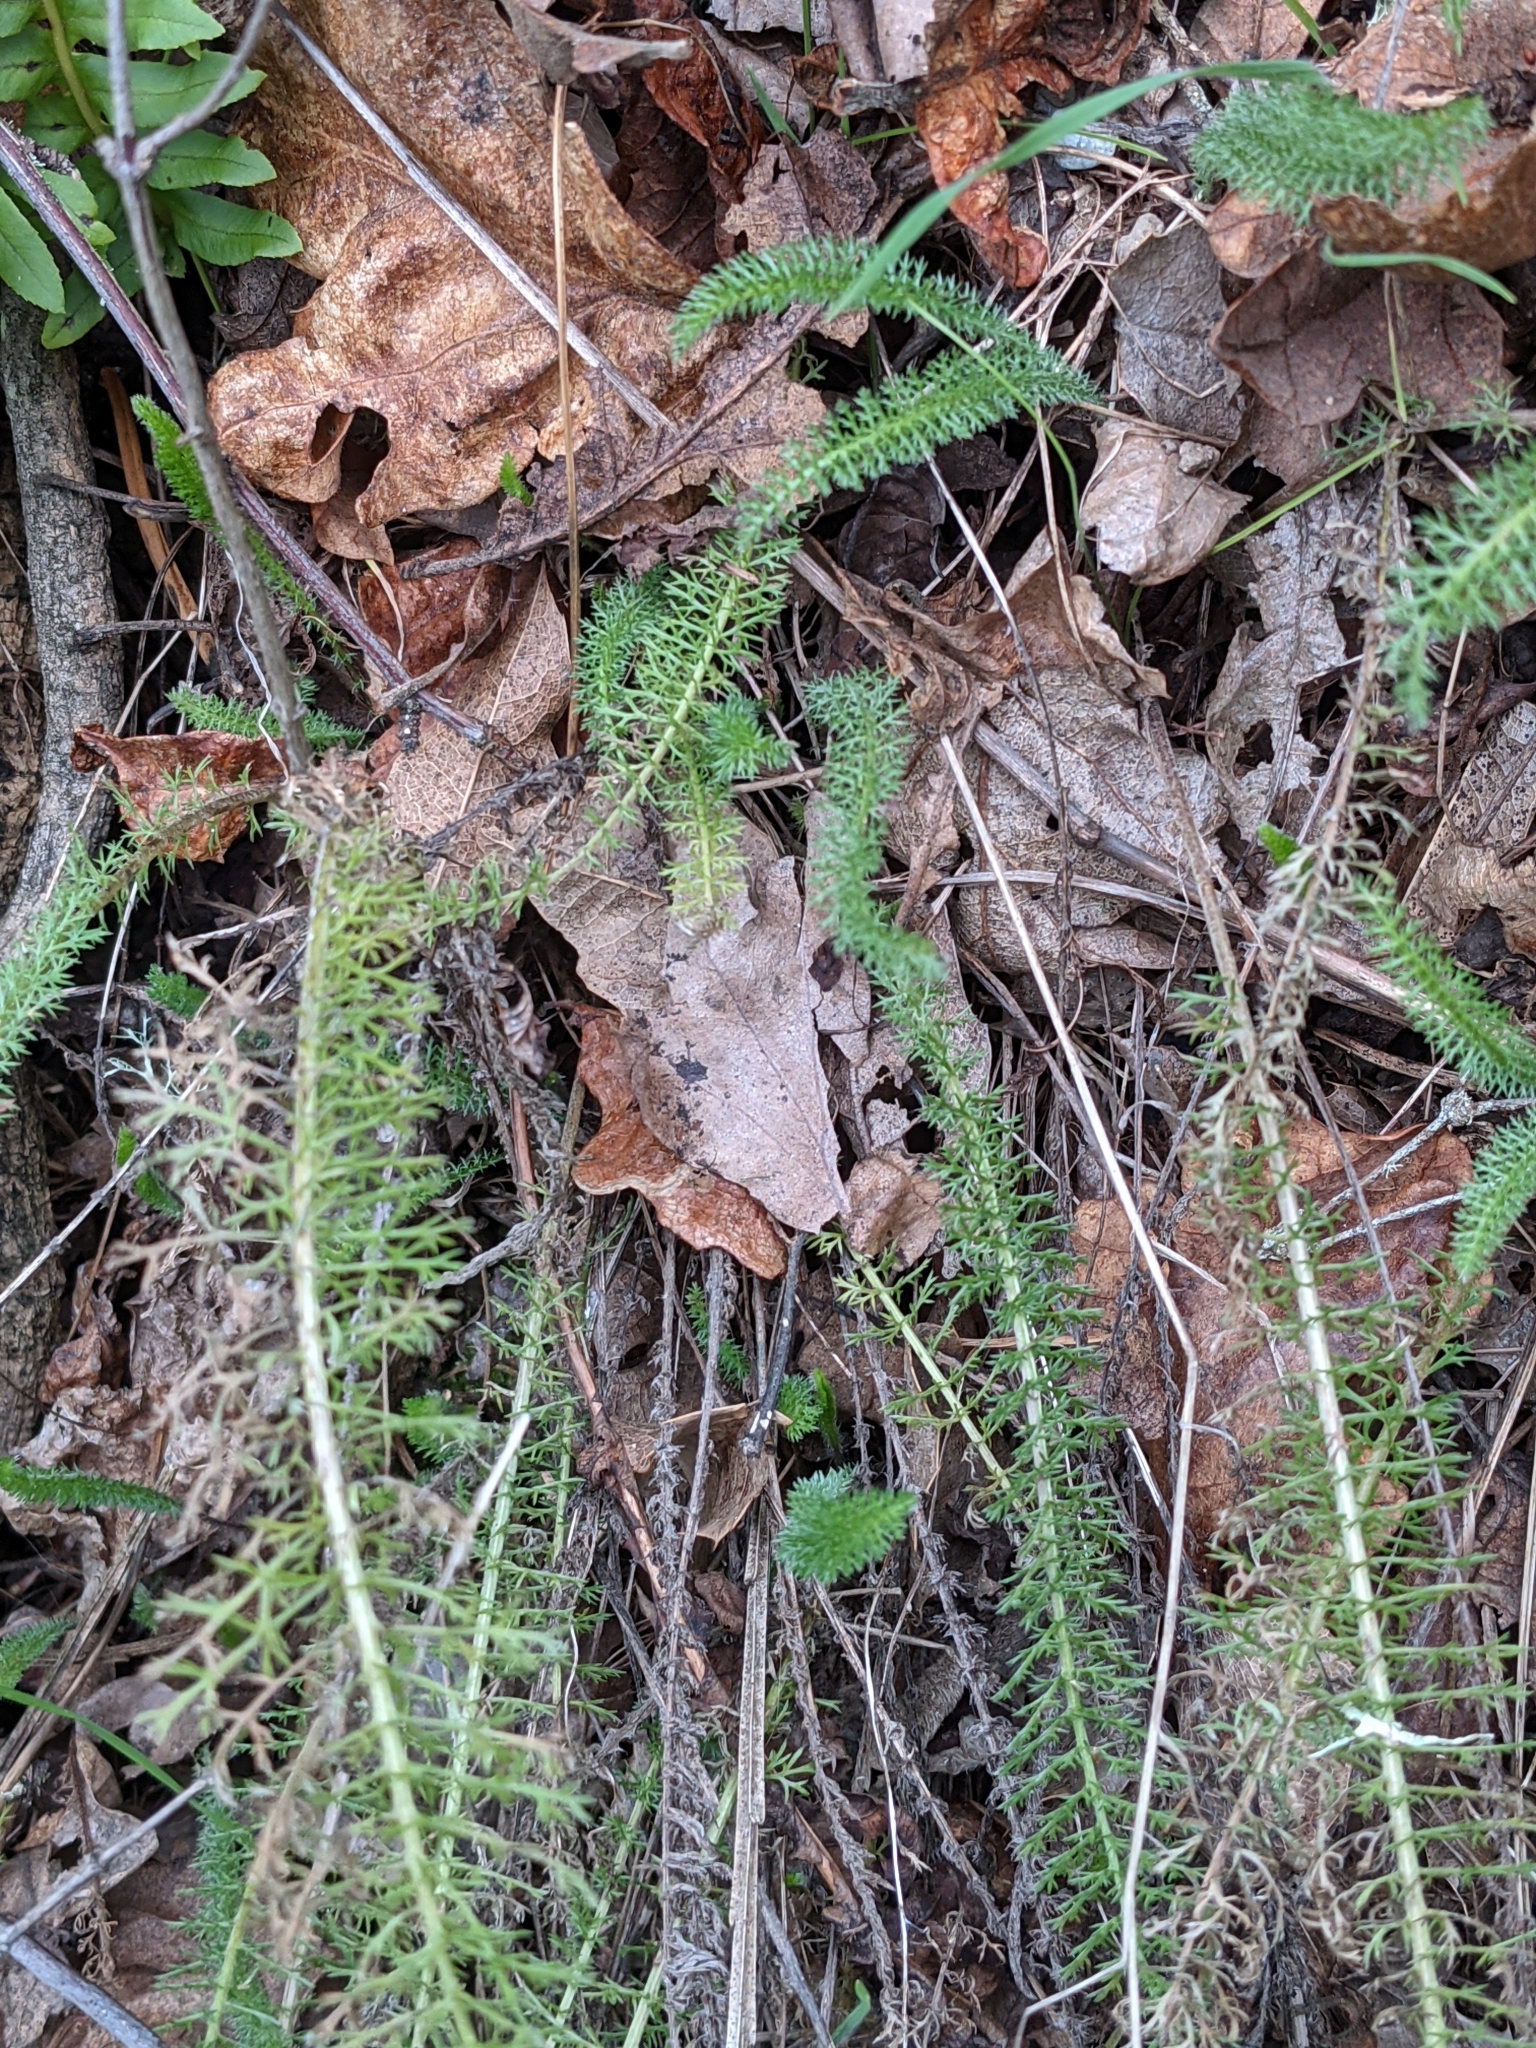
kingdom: Plantae
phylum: Tracheophyta
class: Magnoliopsida
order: Asterales
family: Asteraceae
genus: Achillea
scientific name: Achillea millefolium
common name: Yarrow
